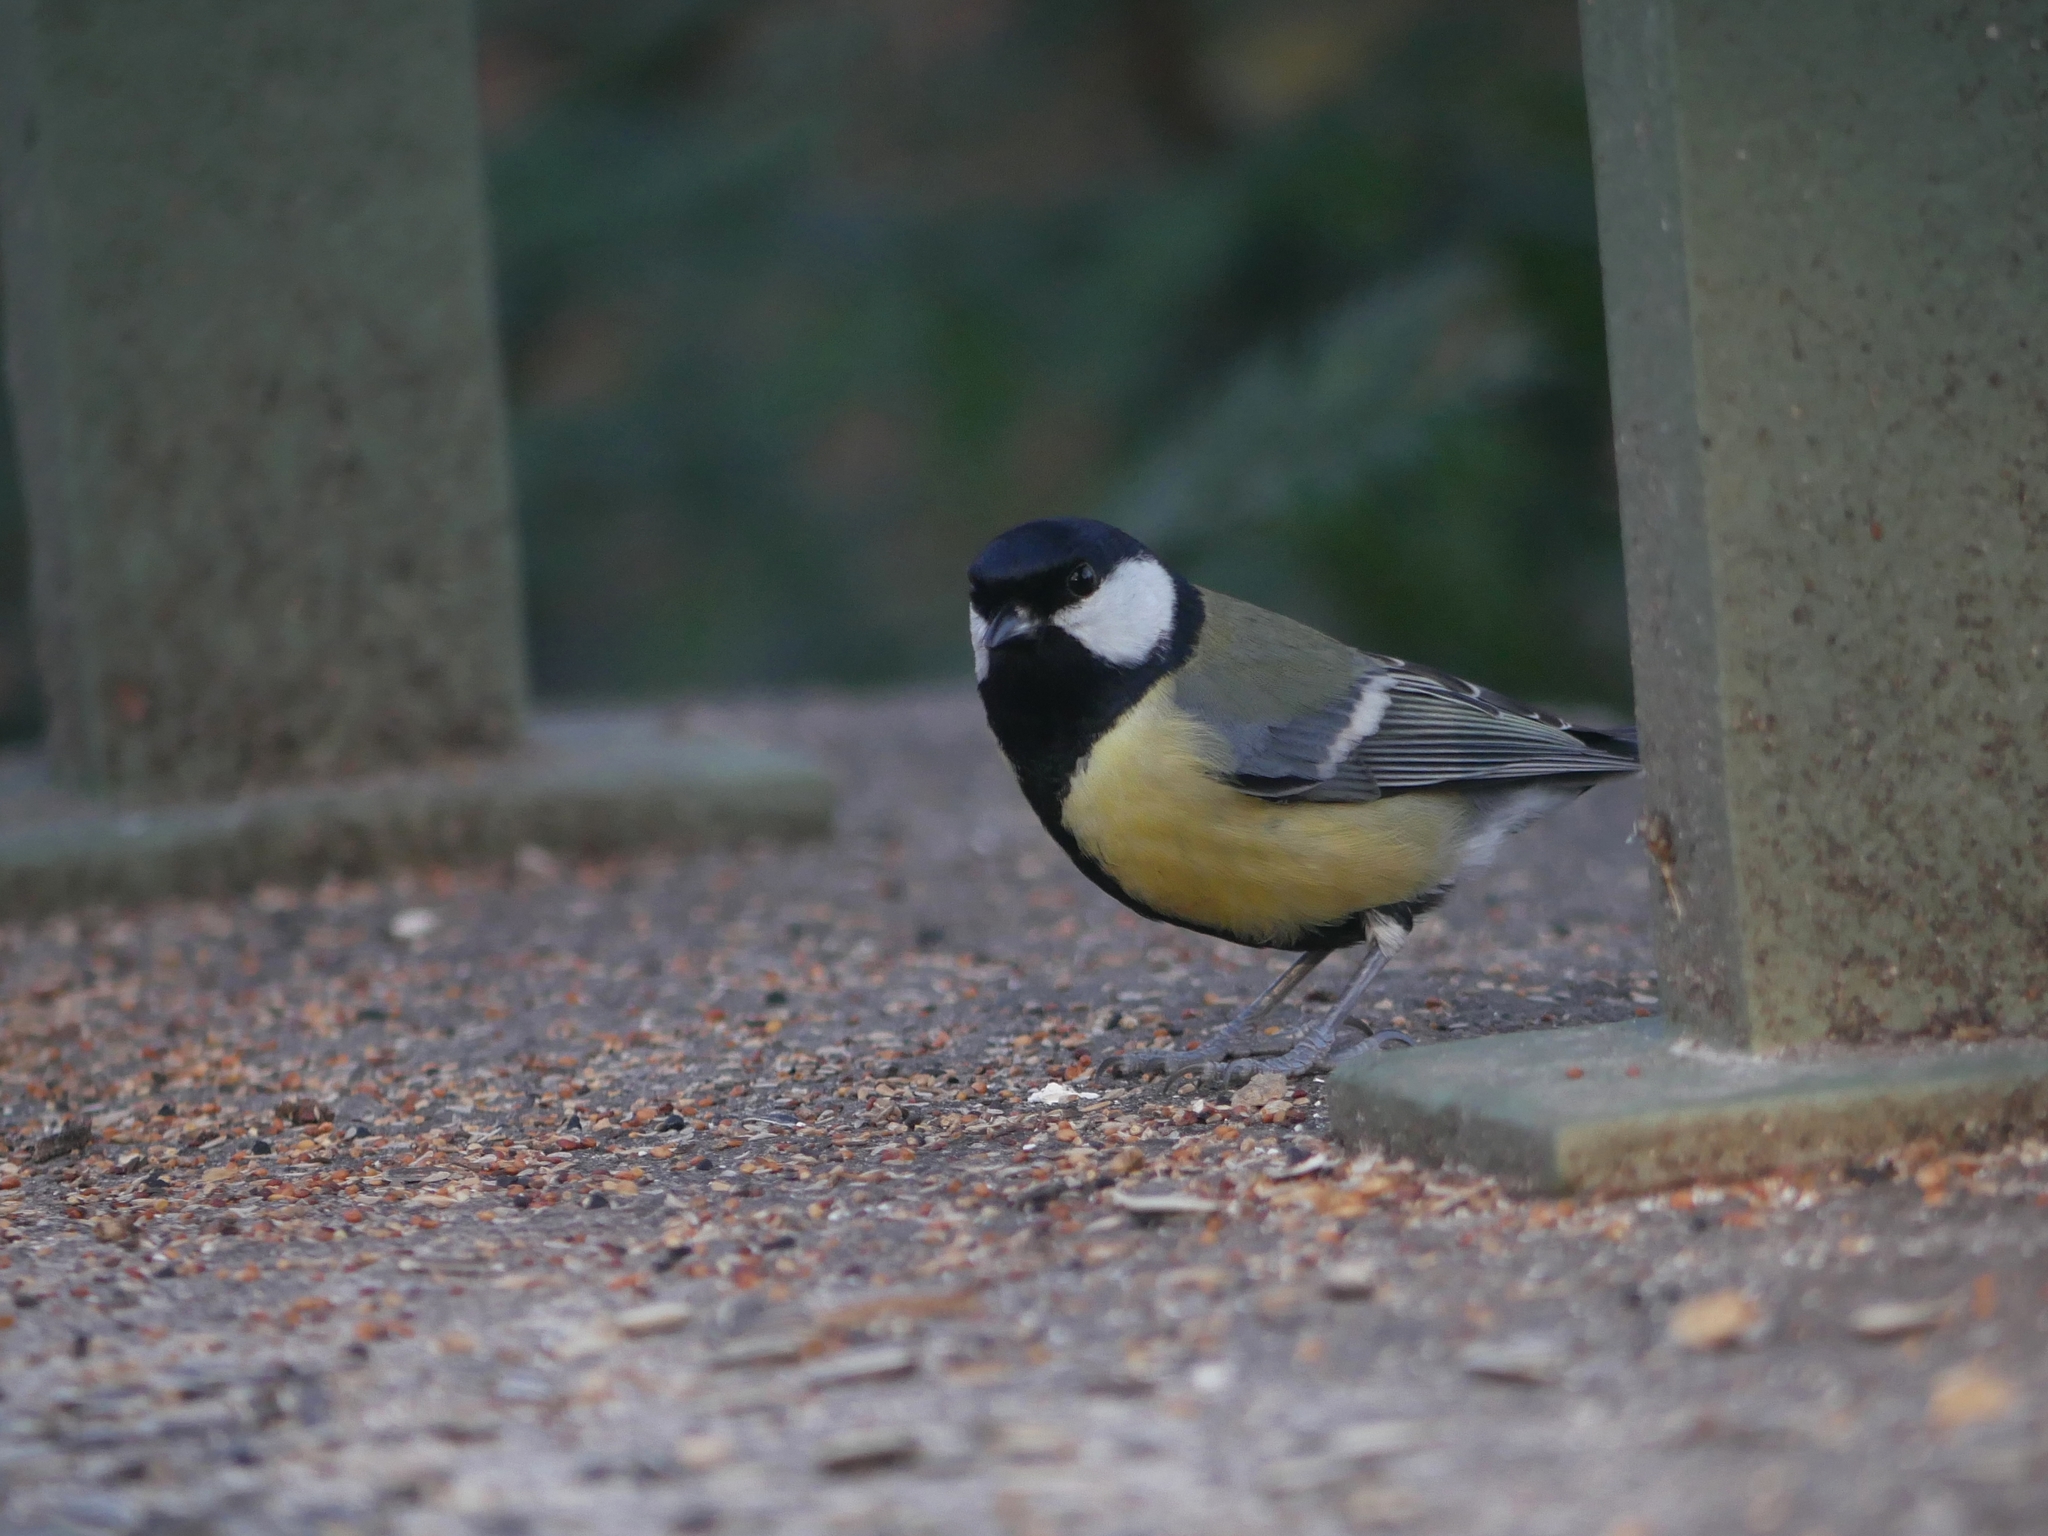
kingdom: Animalia
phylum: Chordata
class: Aves
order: Passeriformes
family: Paridae
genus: Parus
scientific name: Parus major
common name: Great tit
